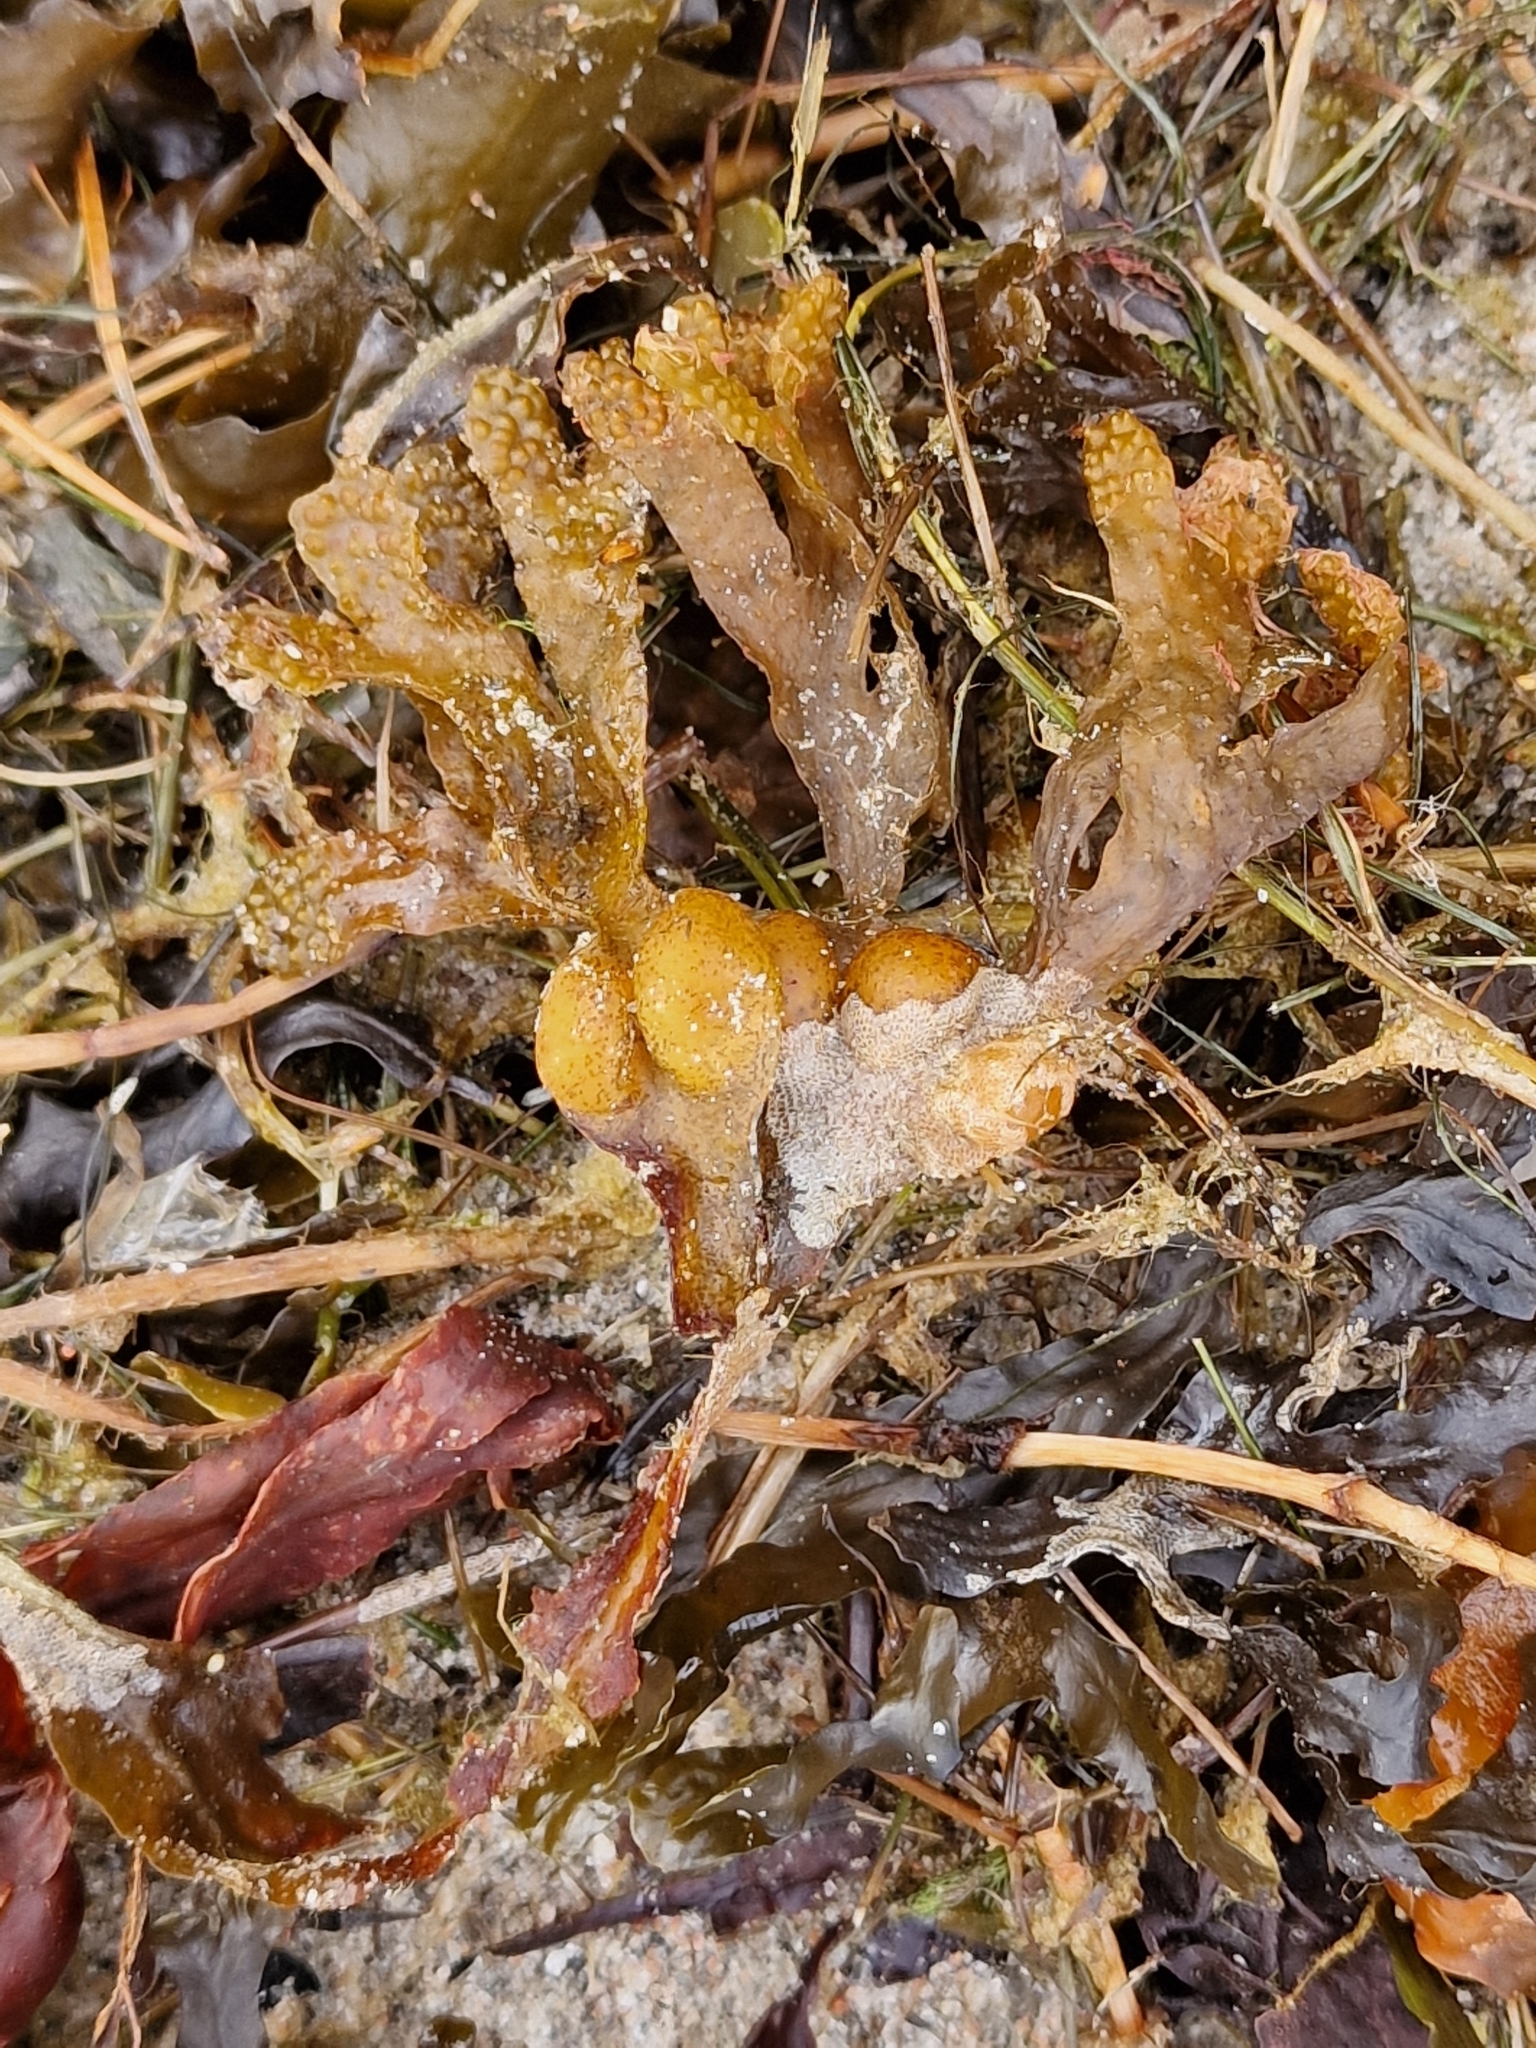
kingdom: Chromista
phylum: Ochrophyta
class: Phaeophyceae
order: Fucales
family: Fucaceae
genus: Fucus
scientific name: Fucus vesiculosus
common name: Bladder wrack
